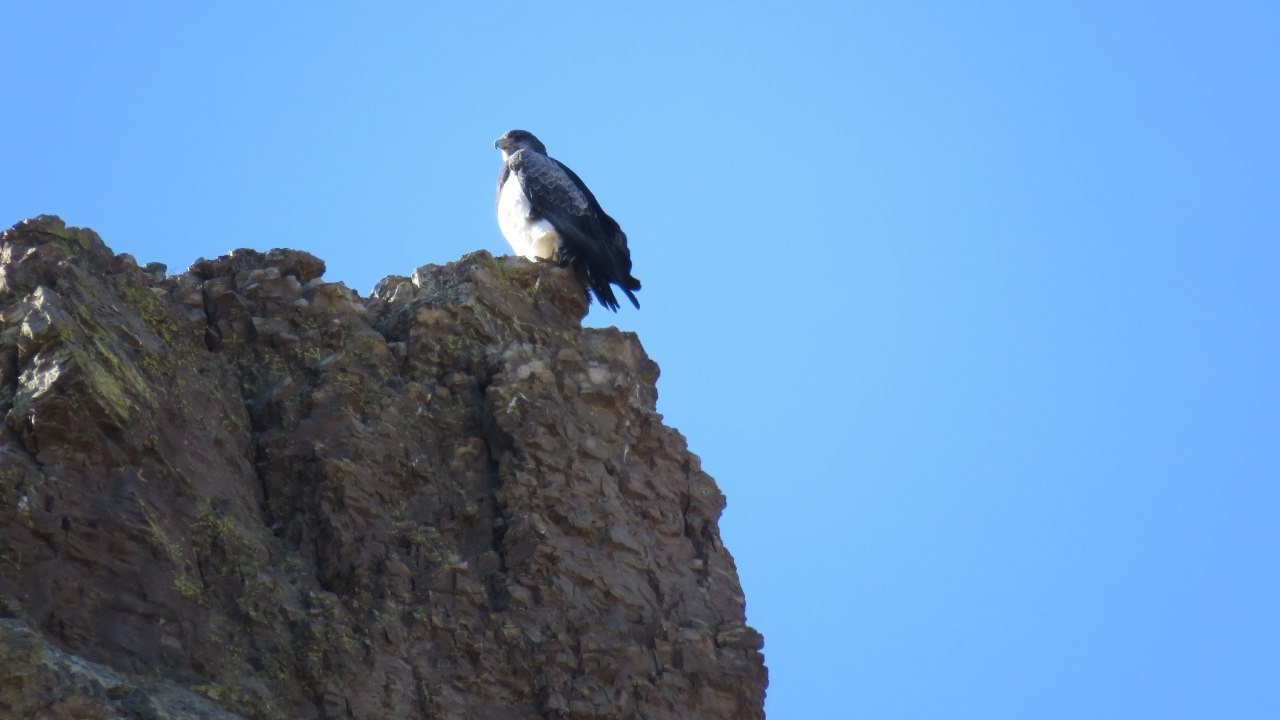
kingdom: Animalia
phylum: Chordata
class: Aves
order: Accipitriformes
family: Accipitridae
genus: Geranoaetus
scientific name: Geranoaetus melanoleucus
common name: Black-chested buzzard-eagle
